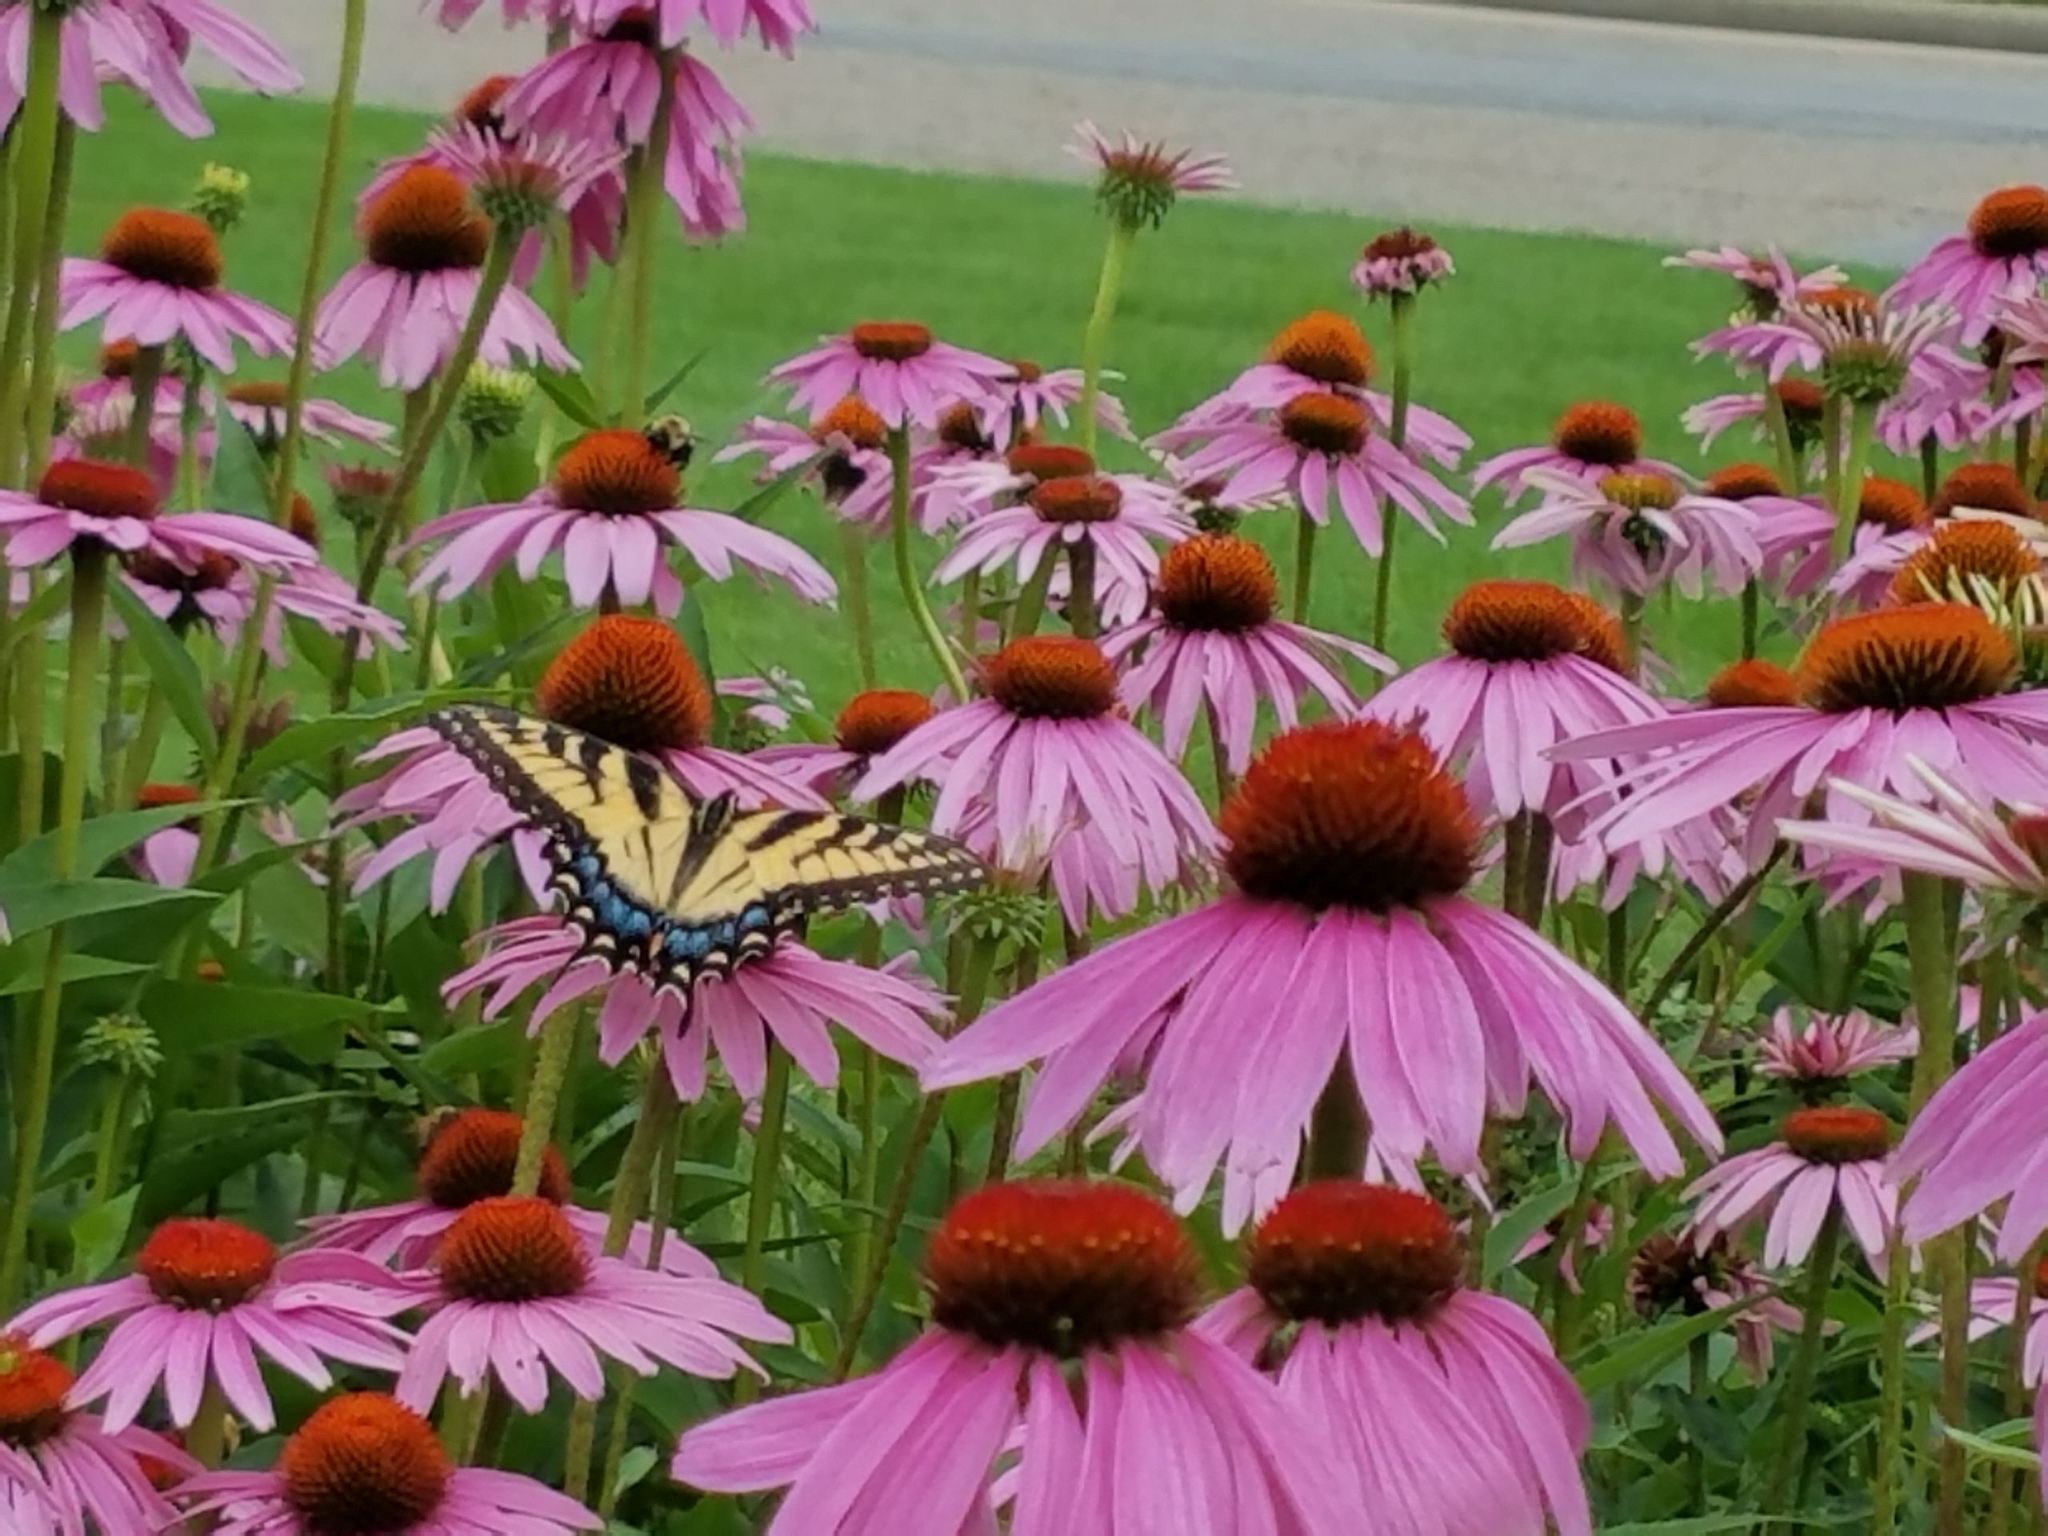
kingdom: Animalia
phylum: Arthropoda
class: Insecta
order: Lepidoptera
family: Papilionidae
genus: Papilio
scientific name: Papilio glaucus
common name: Tiger swallowtail
